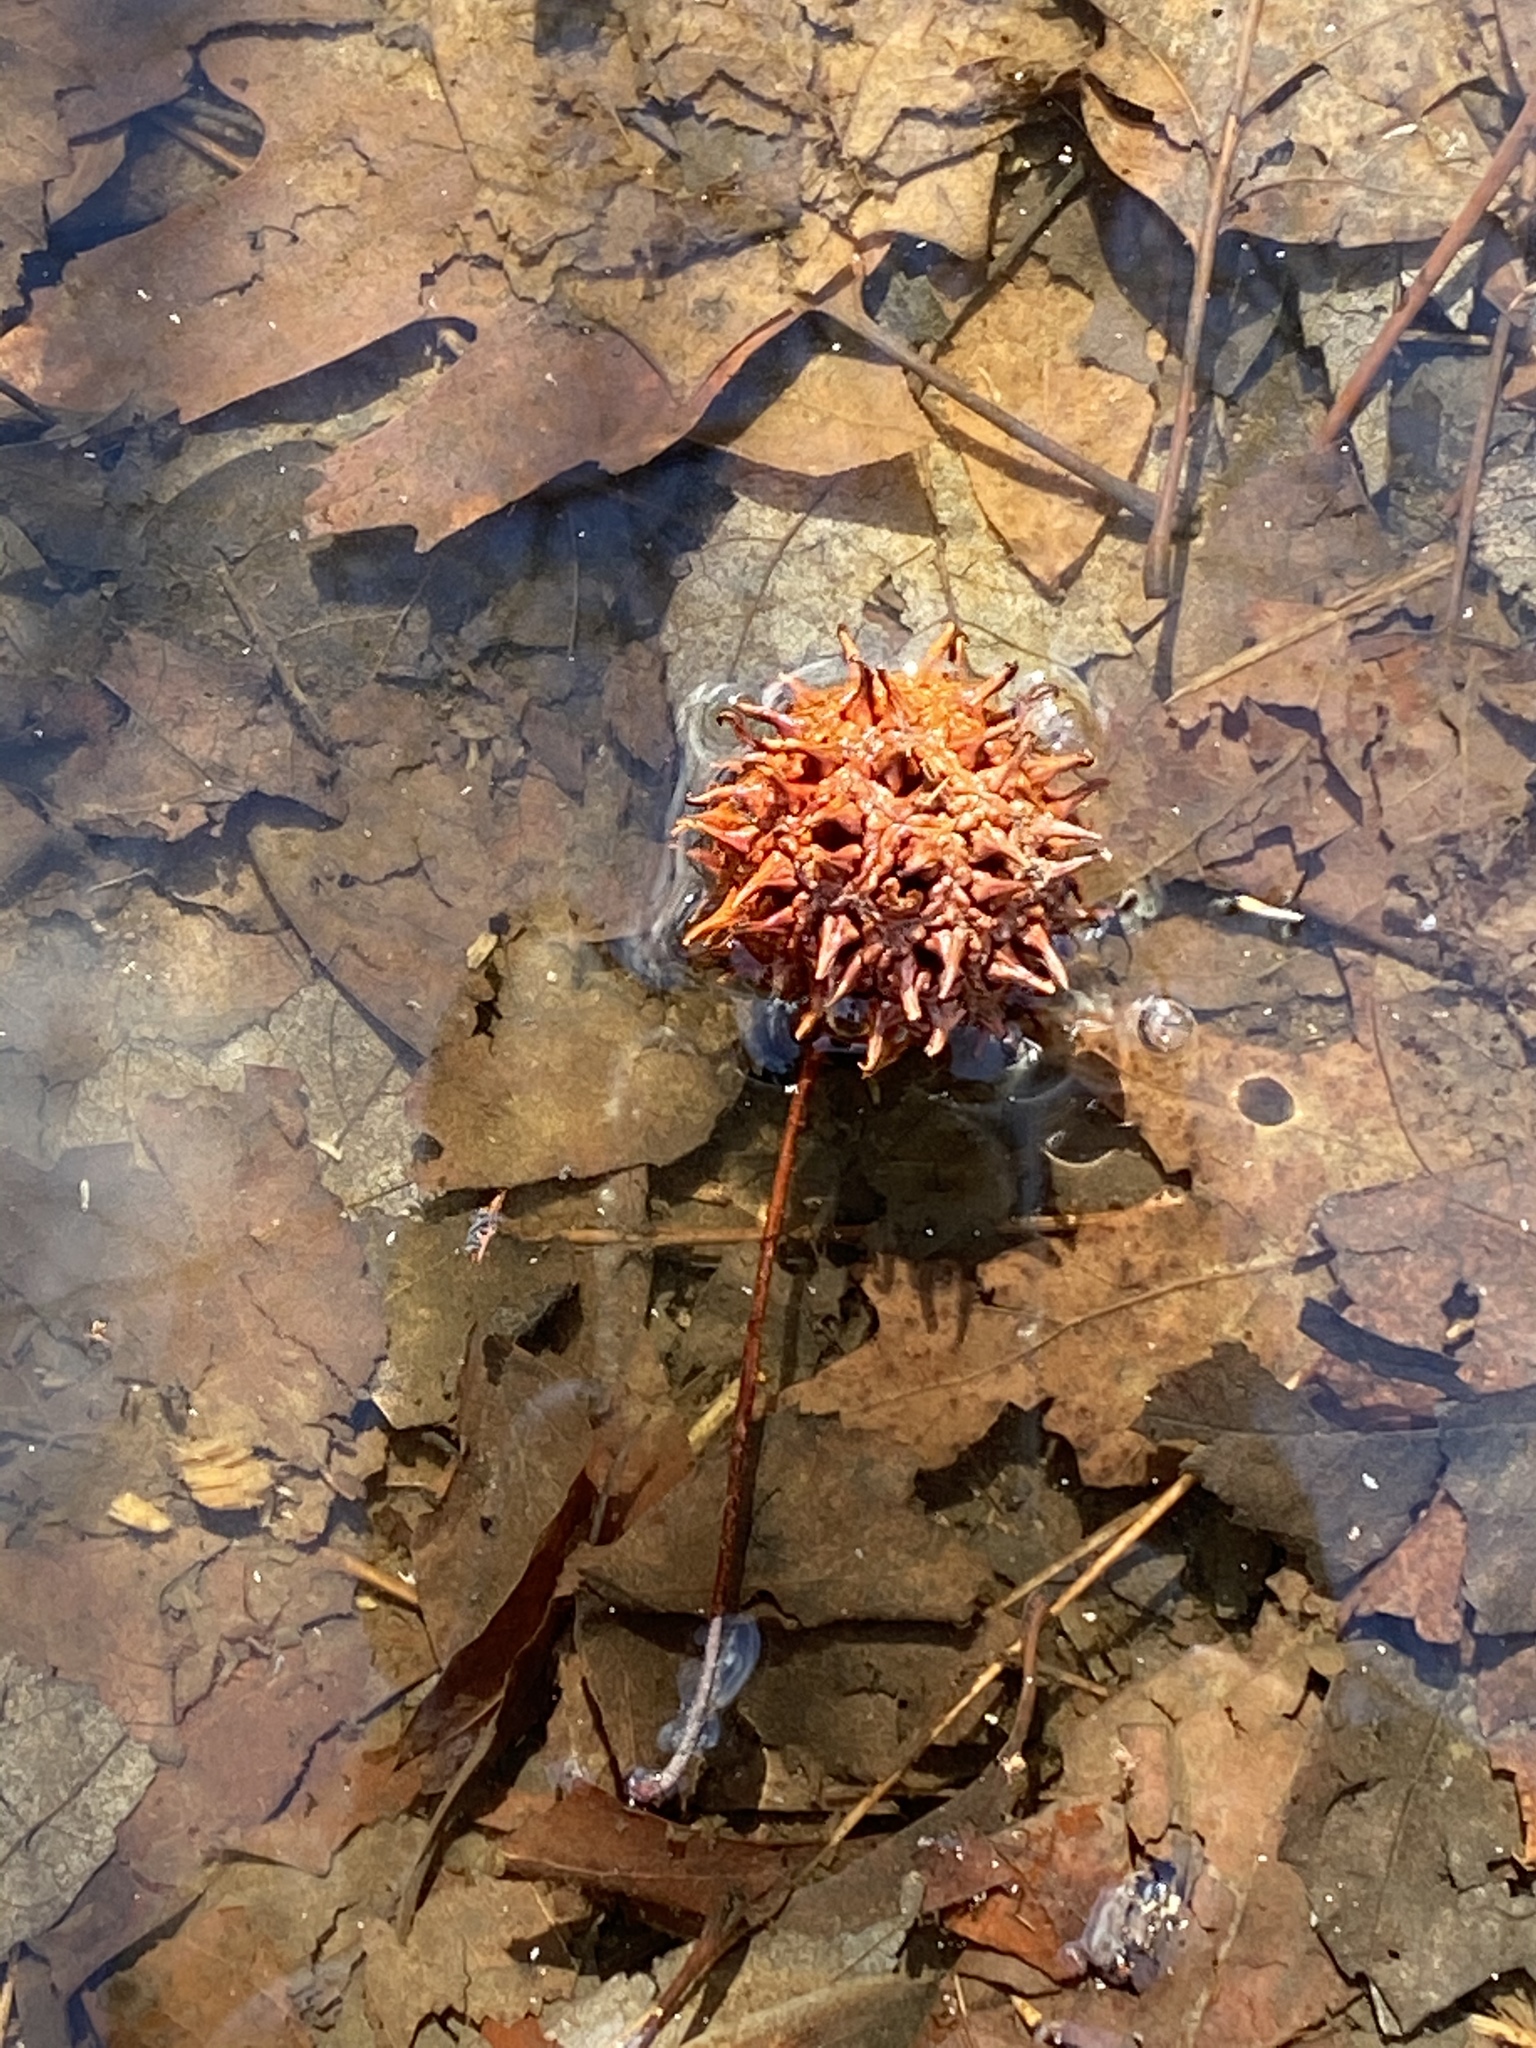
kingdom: Plantae
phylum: Tracheophyta
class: Magnoliopsida
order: Saxifragales
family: Altingiaceae
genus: Liquidambar
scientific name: Liquidambar styraciflua
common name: Sweet gum
